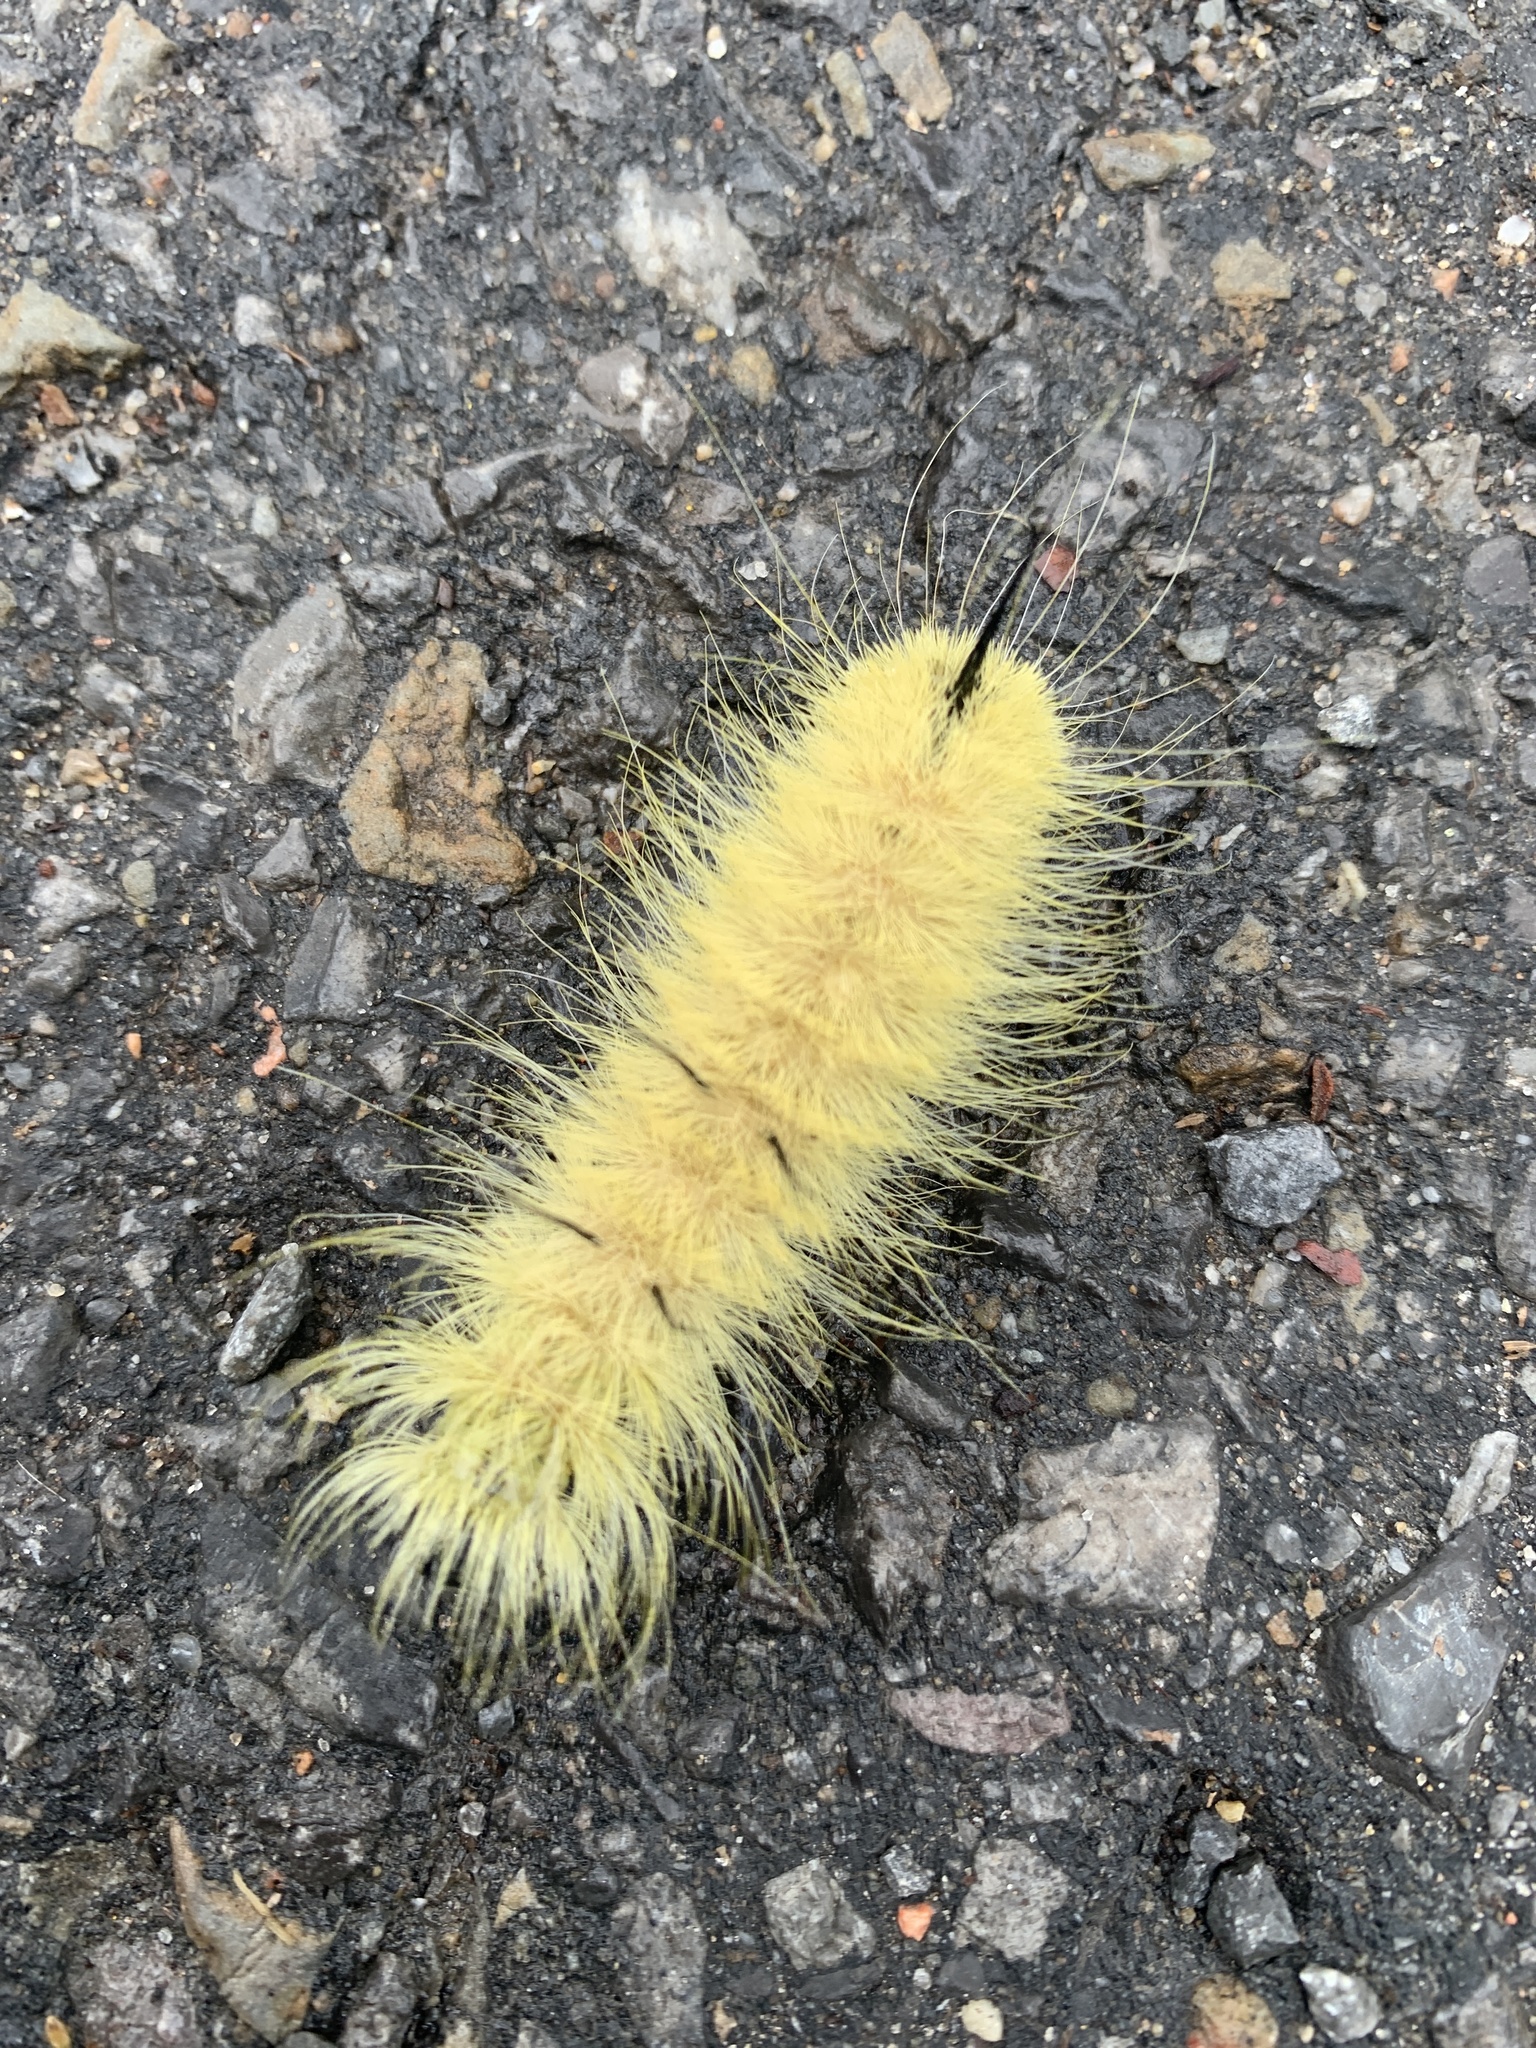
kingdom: Animalia
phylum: Arthropoda
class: Insecta
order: Lepidoptera
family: Noctuidae
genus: Acronicta
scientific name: Acronicta americana
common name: American dagger
